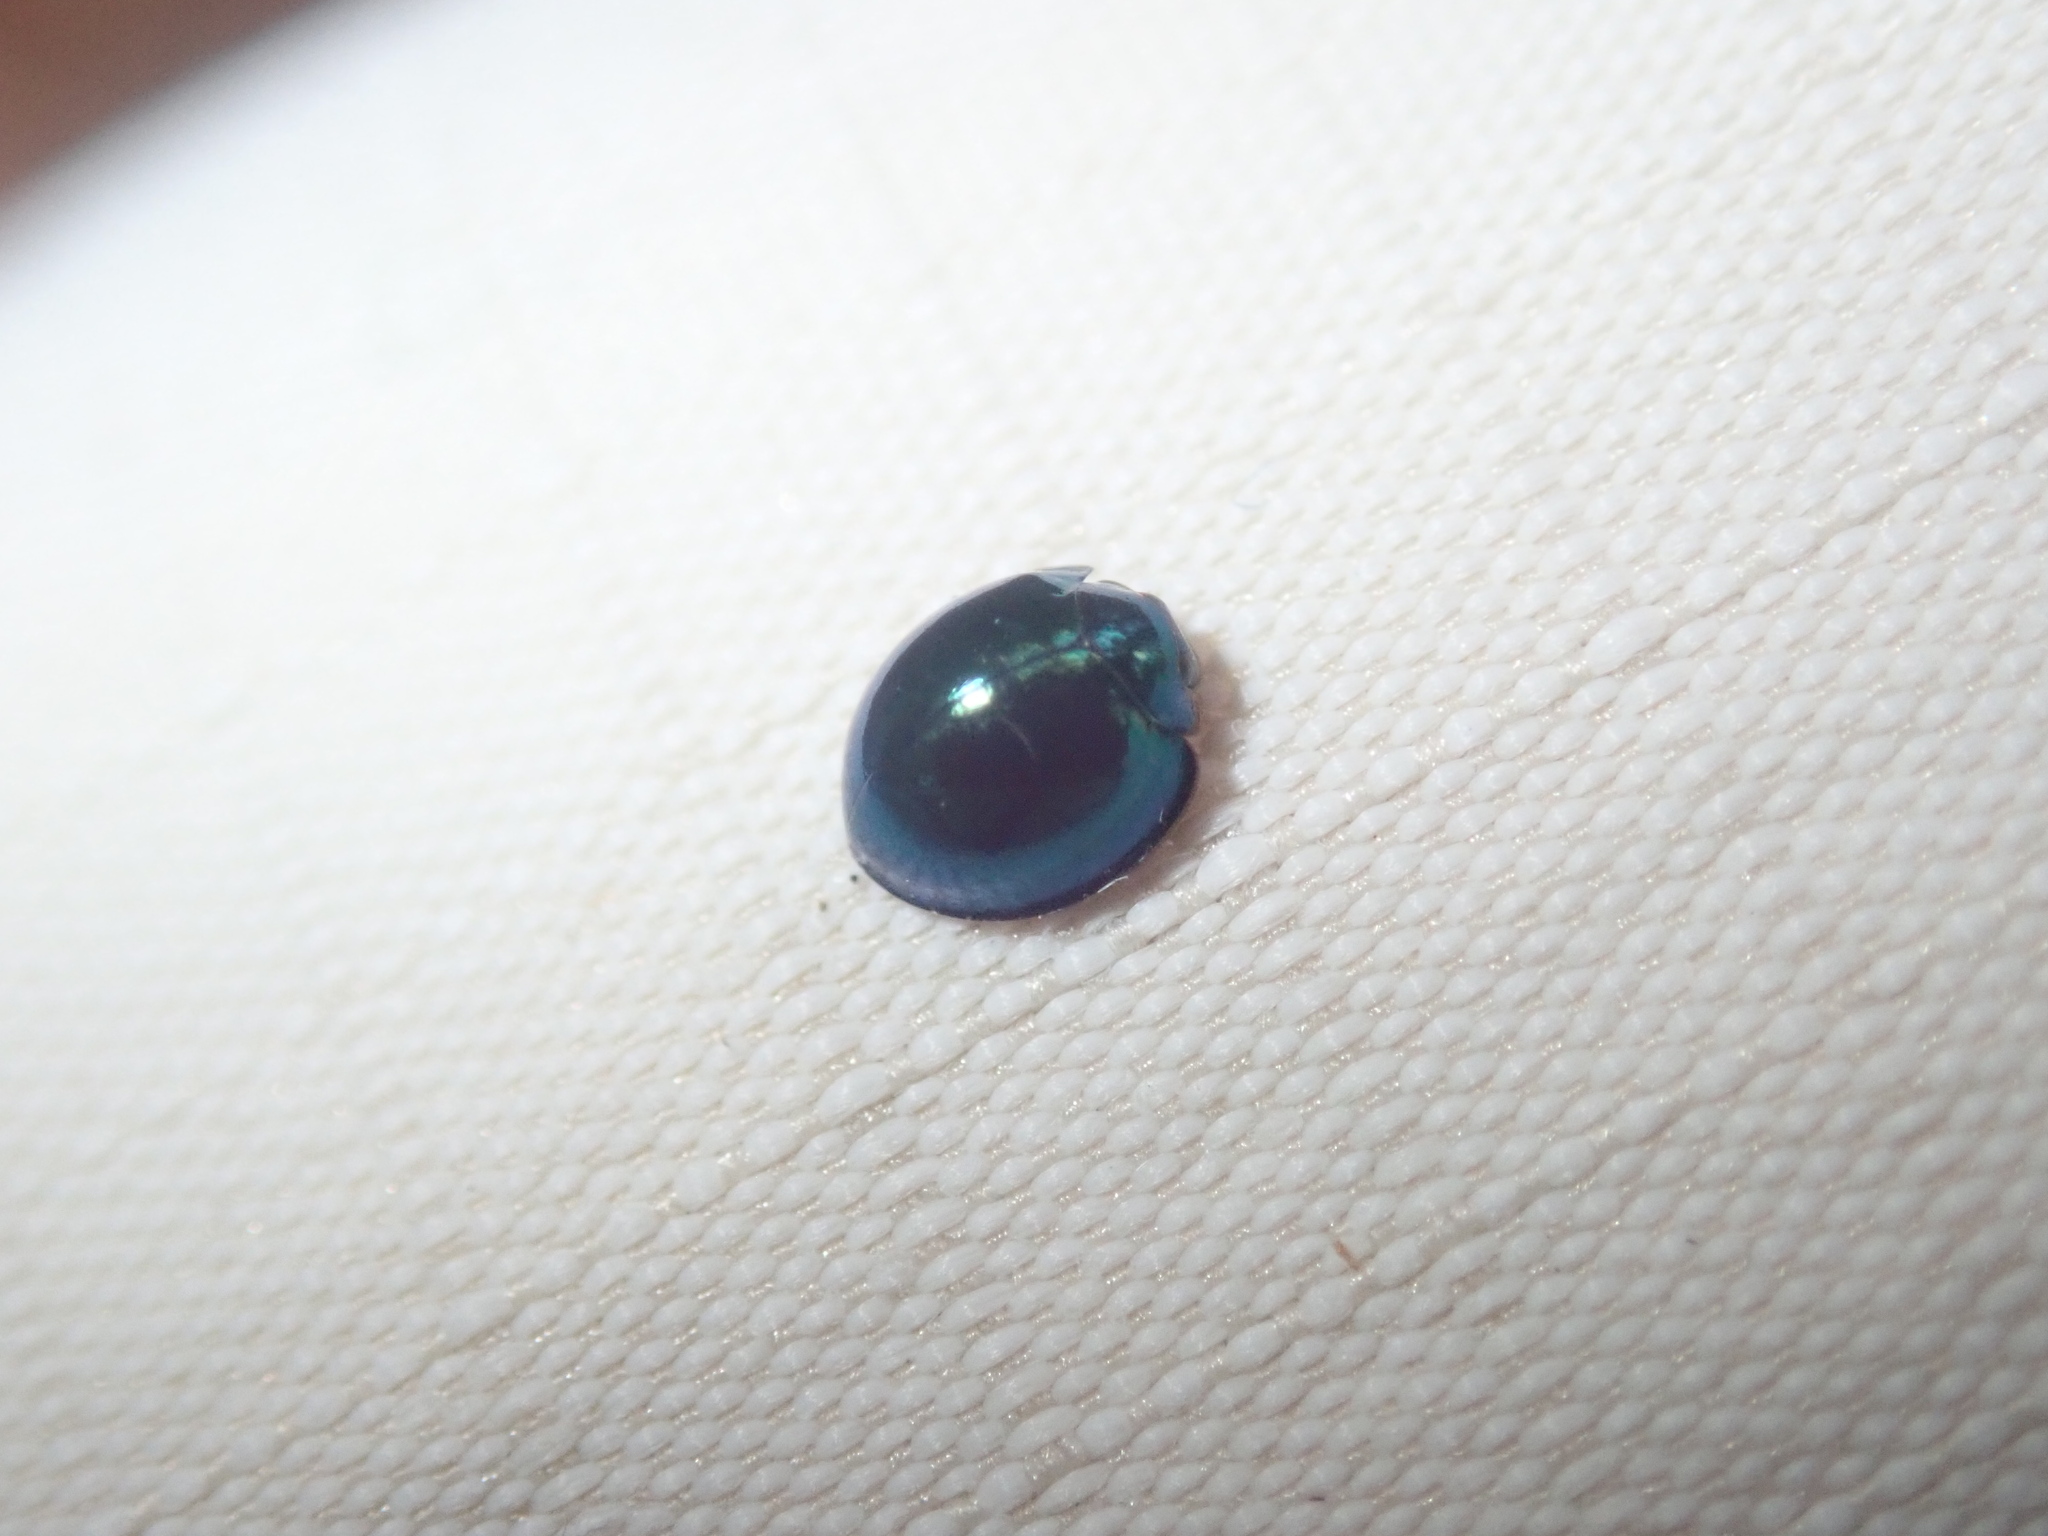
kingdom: Animalia
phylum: Arthropoda
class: Insecta
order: Coleoptera
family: Coccinellidae
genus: Halmus
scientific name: Halmus chalybeus
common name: Steel blue ladybird beetle
